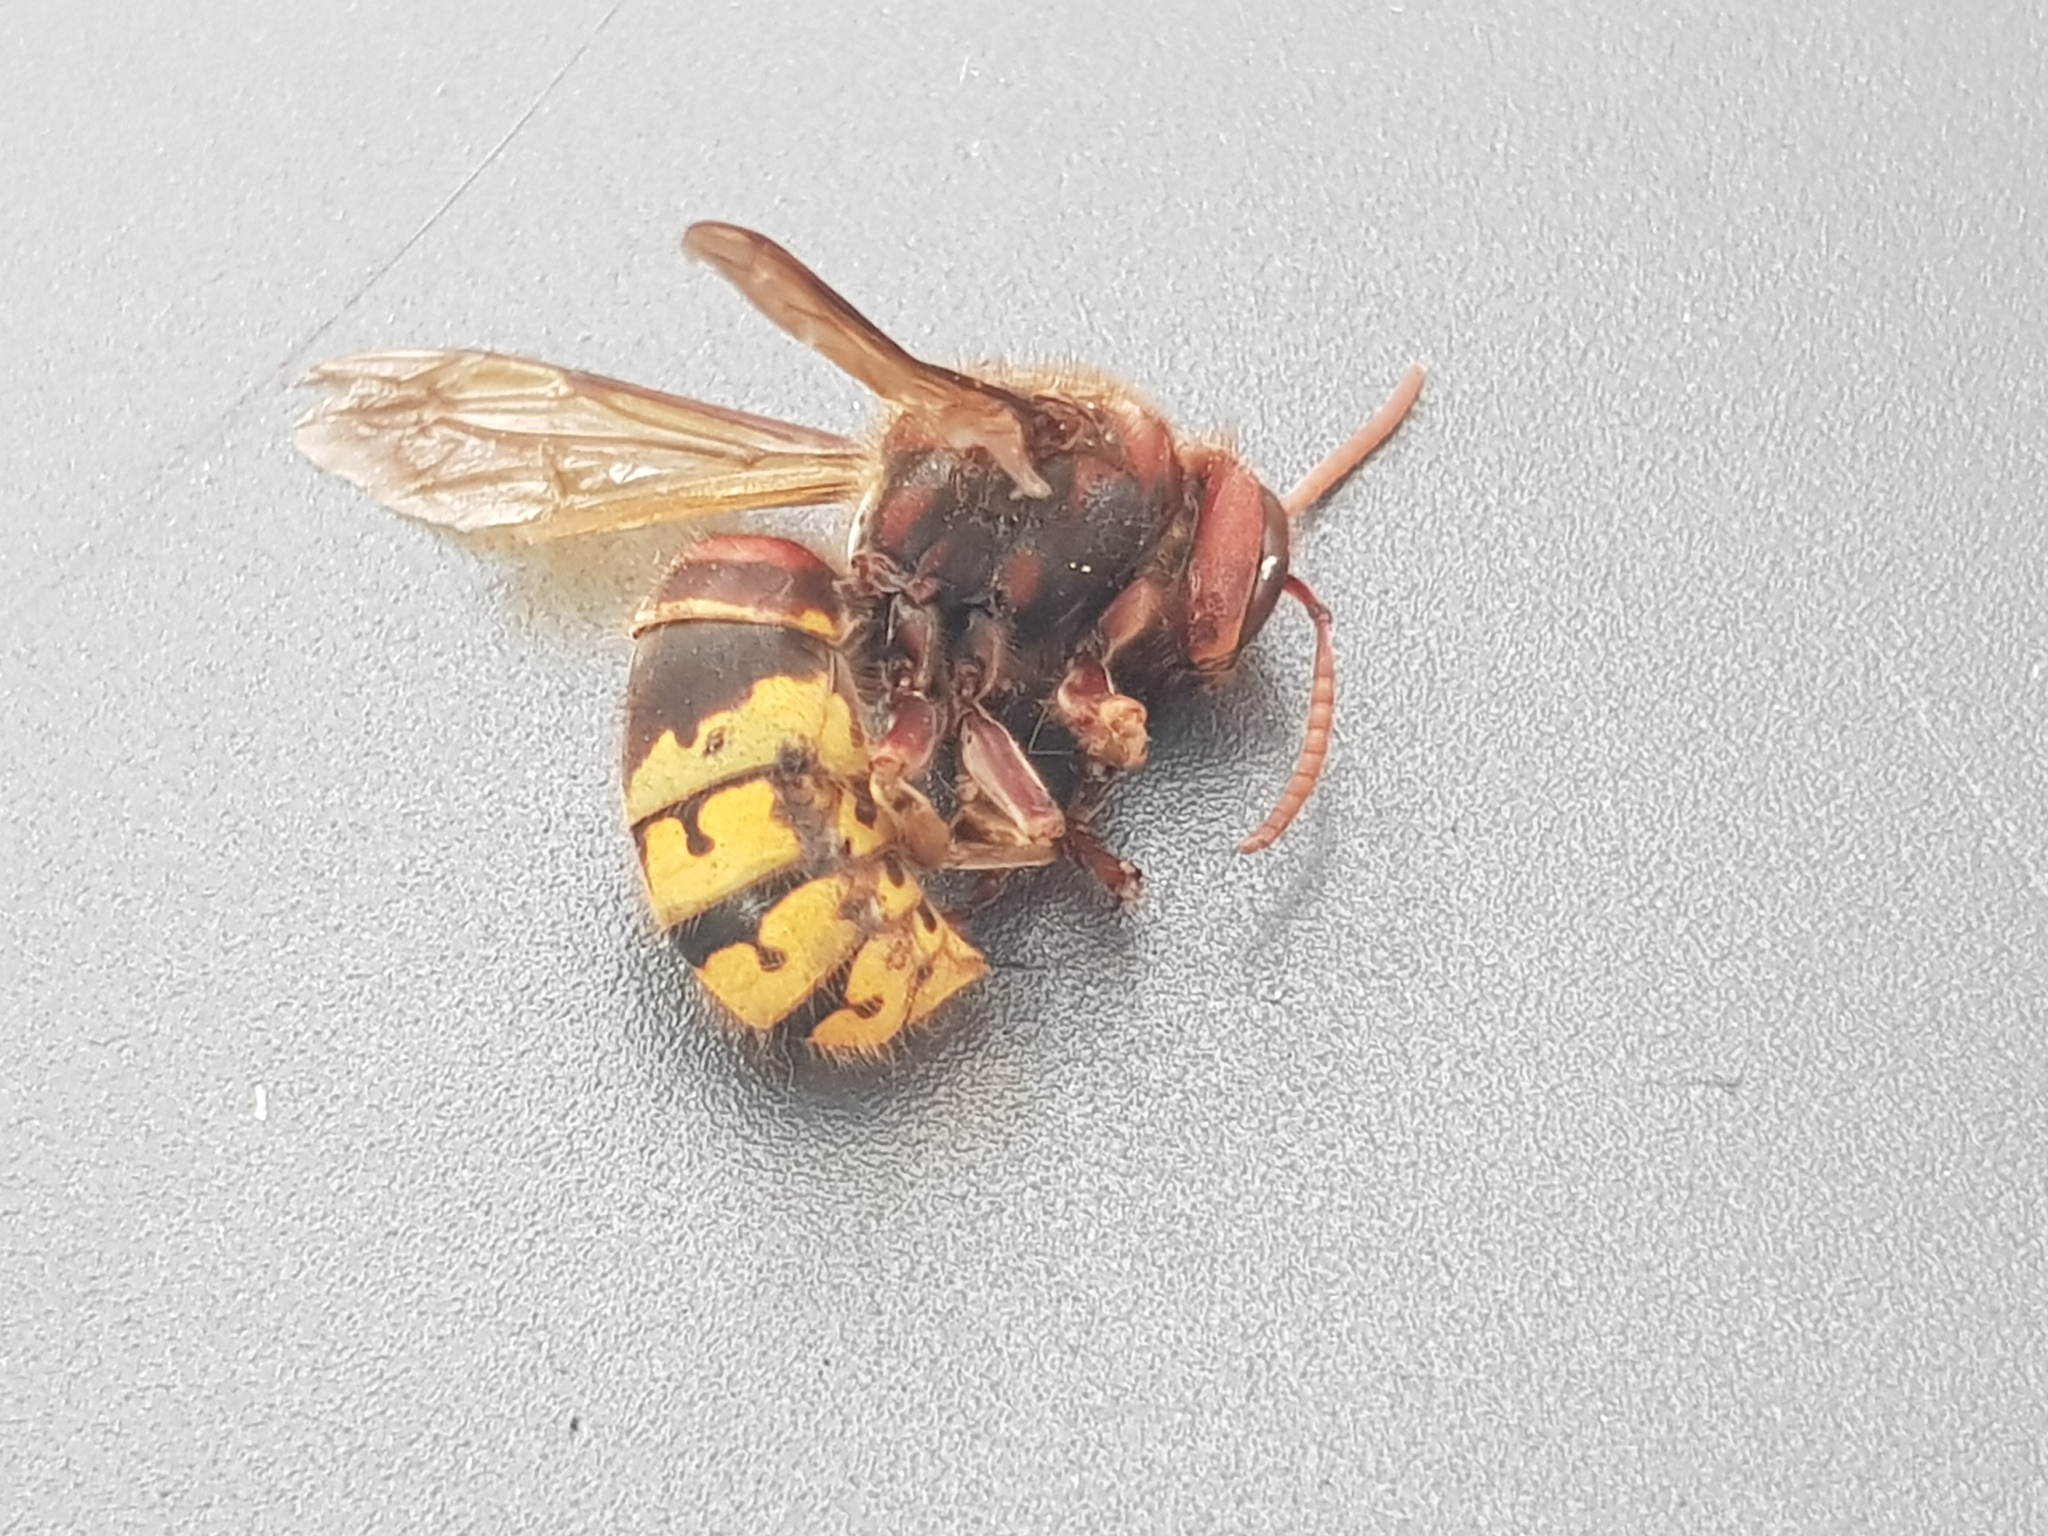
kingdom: Animalia
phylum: Arthropoda
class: Insecta
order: Hymenoptera
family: Vespidae
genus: Vespa
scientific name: Vespa crabro
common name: Hornet
